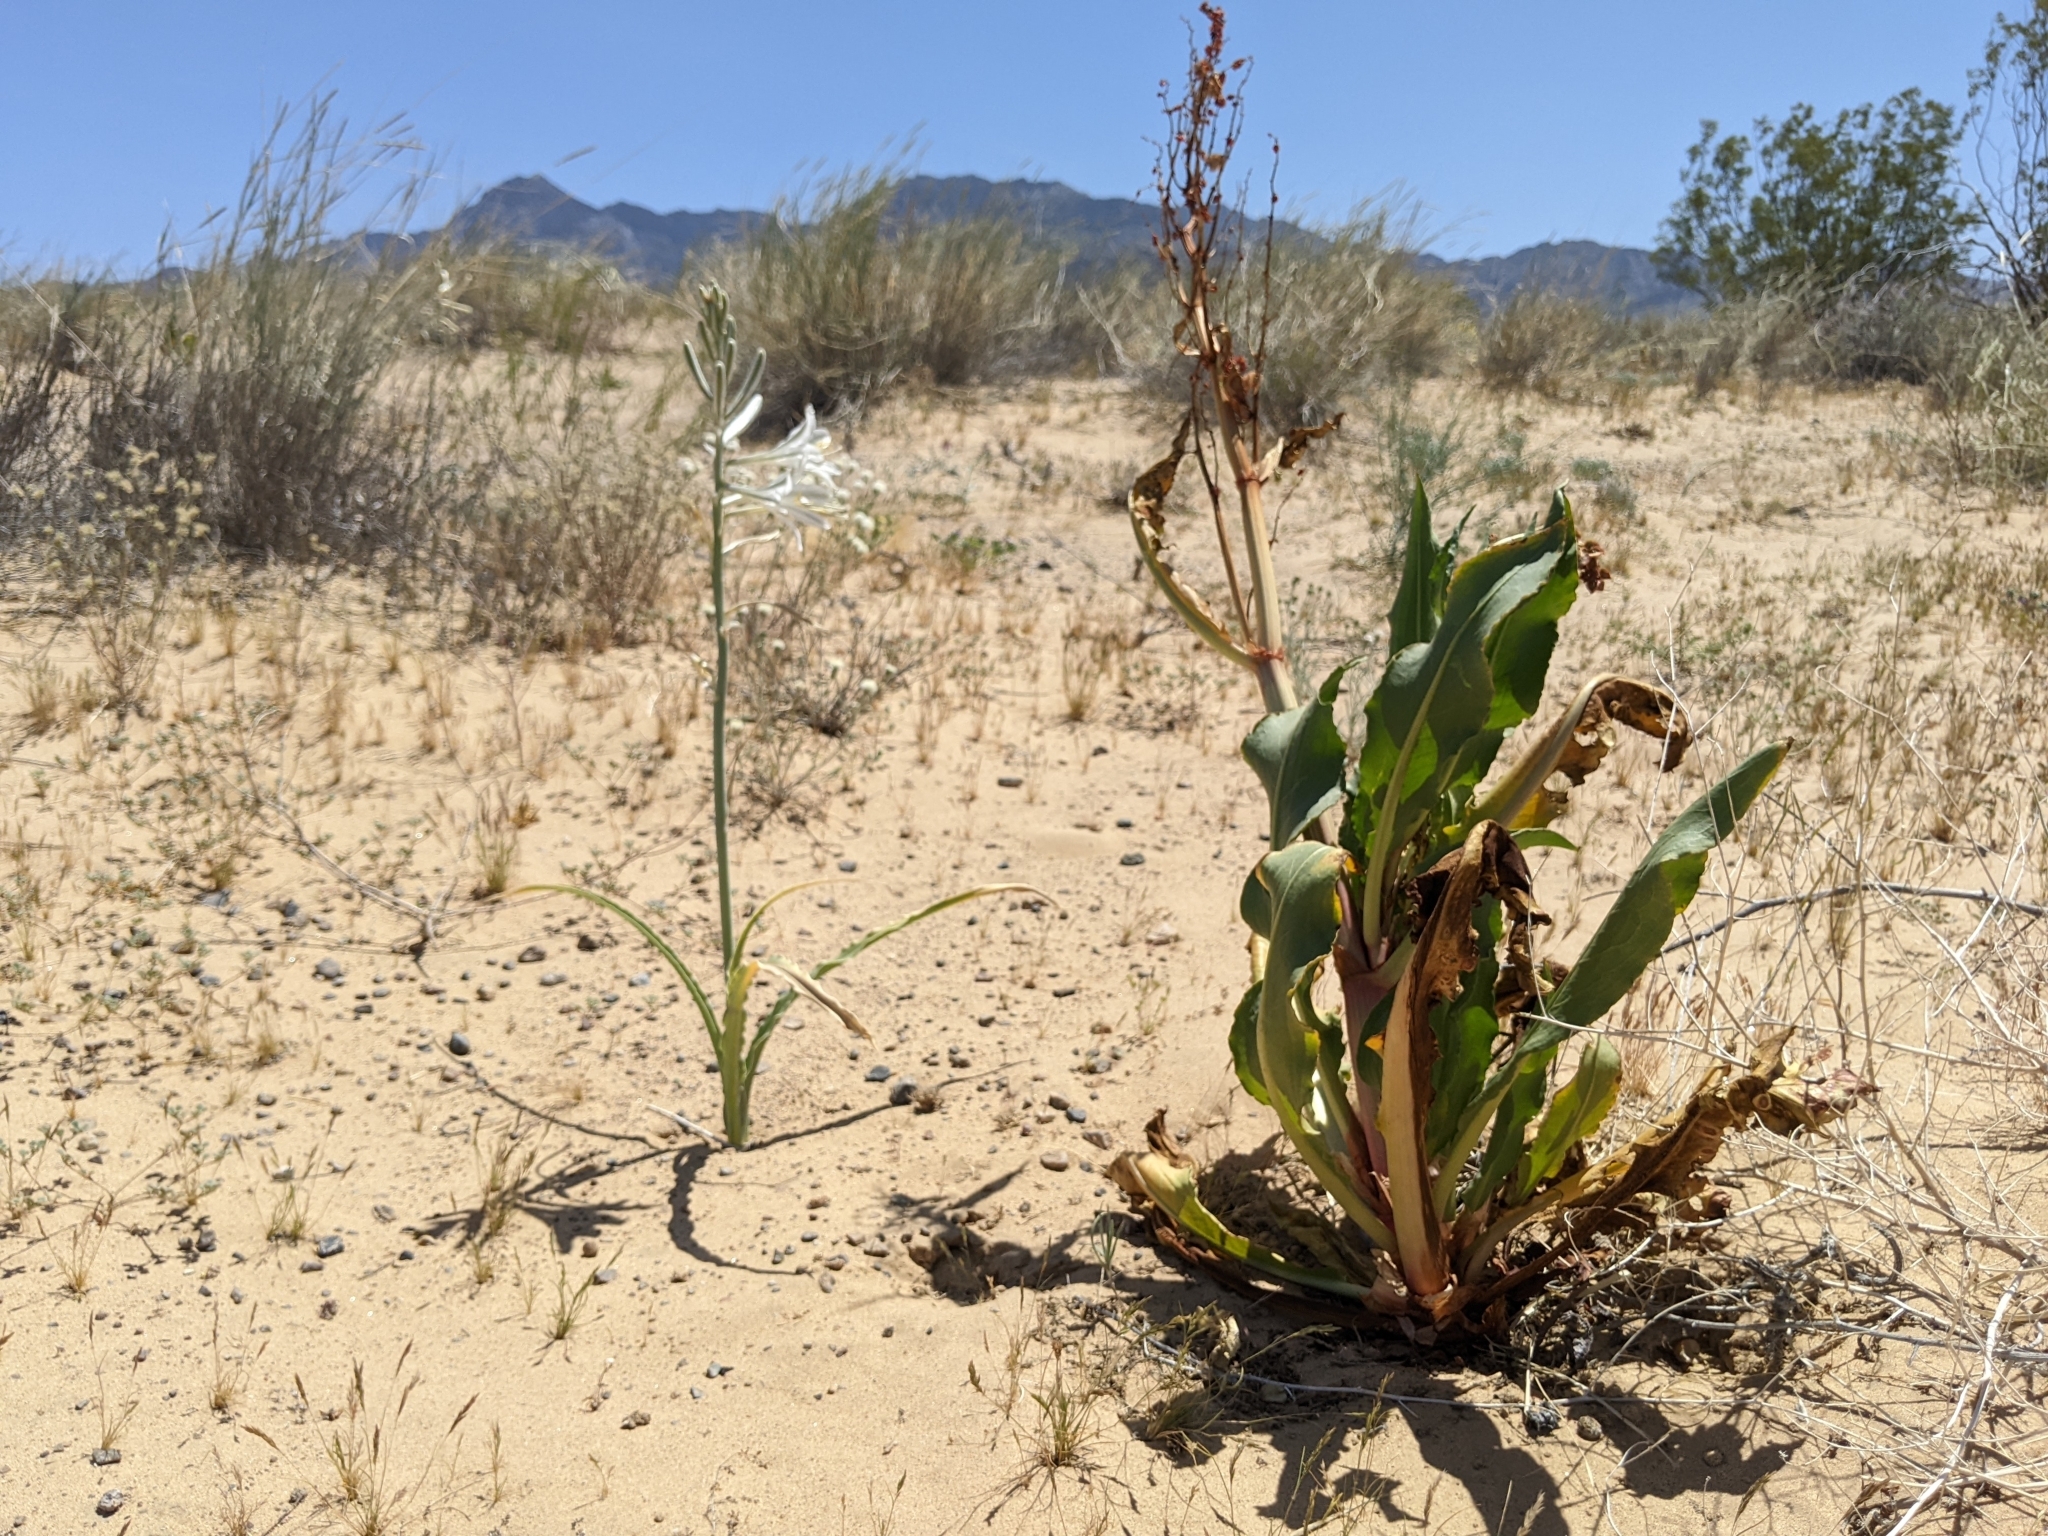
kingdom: Plantae
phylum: Tracheophyta
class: Magnoliopsida
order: Caryophyllales
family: Polygonaceae
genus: Rumex
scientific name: Rumex hymenosepalus
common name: Ganagra
